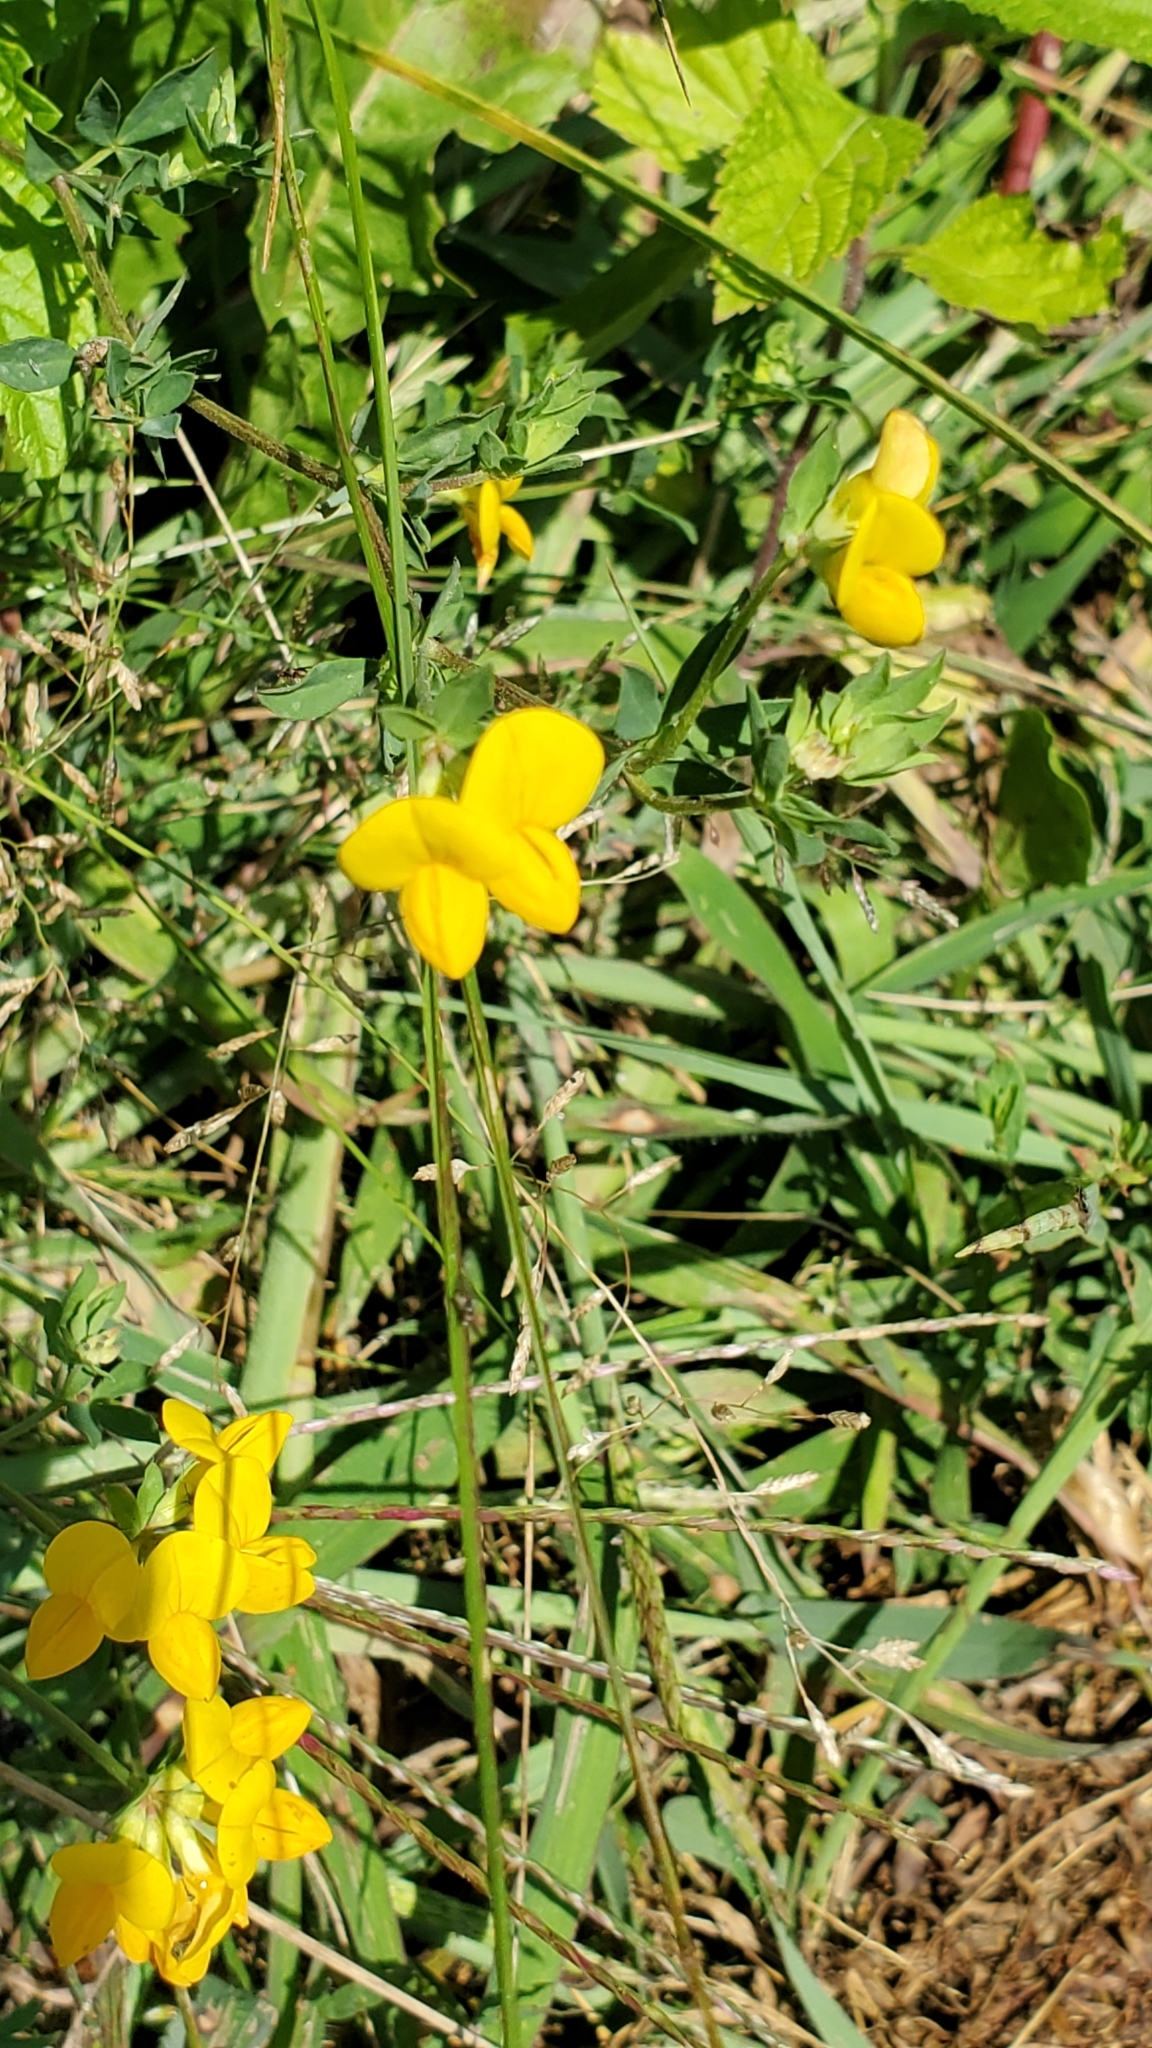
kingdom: Plantae
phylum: Tracheophyta
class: Magnoliopsida
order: Fabales
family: Fabaceae
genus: Lotus
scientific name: Lotus corniculatus
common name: Common bird's-foot-trefoil
